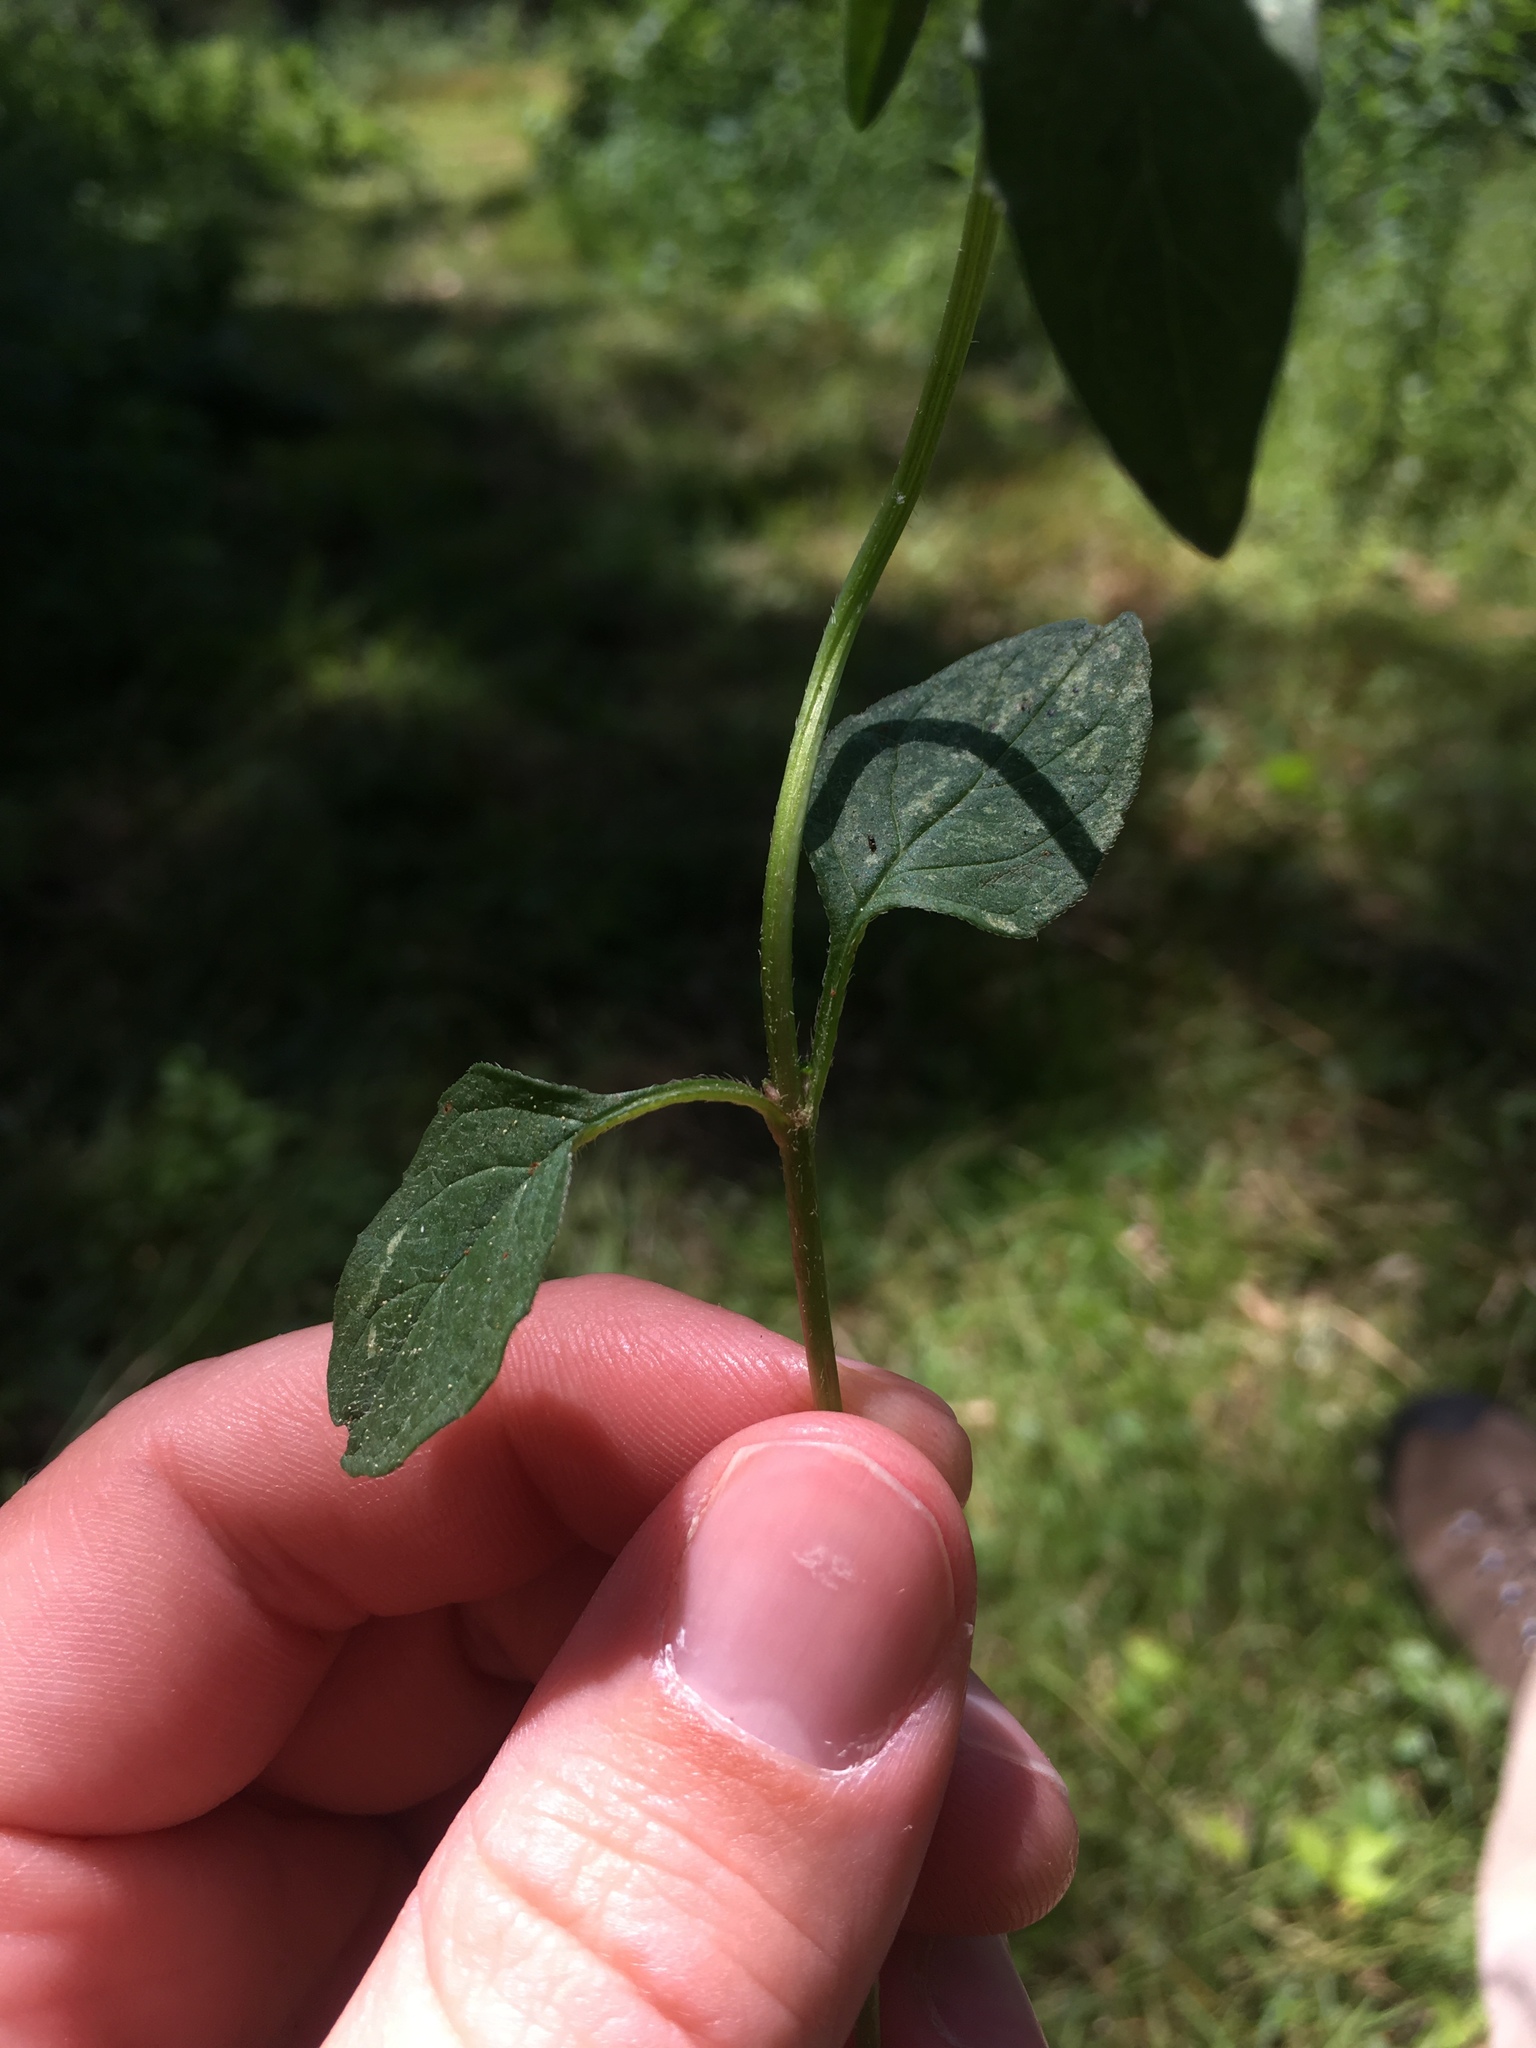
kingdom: Plantae
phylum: Tracheophyta
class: Magnoliopsida
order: Lamiales
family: Lamiaceae
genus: Prunella
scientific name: Prunella vulgaris
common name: Heal-all
